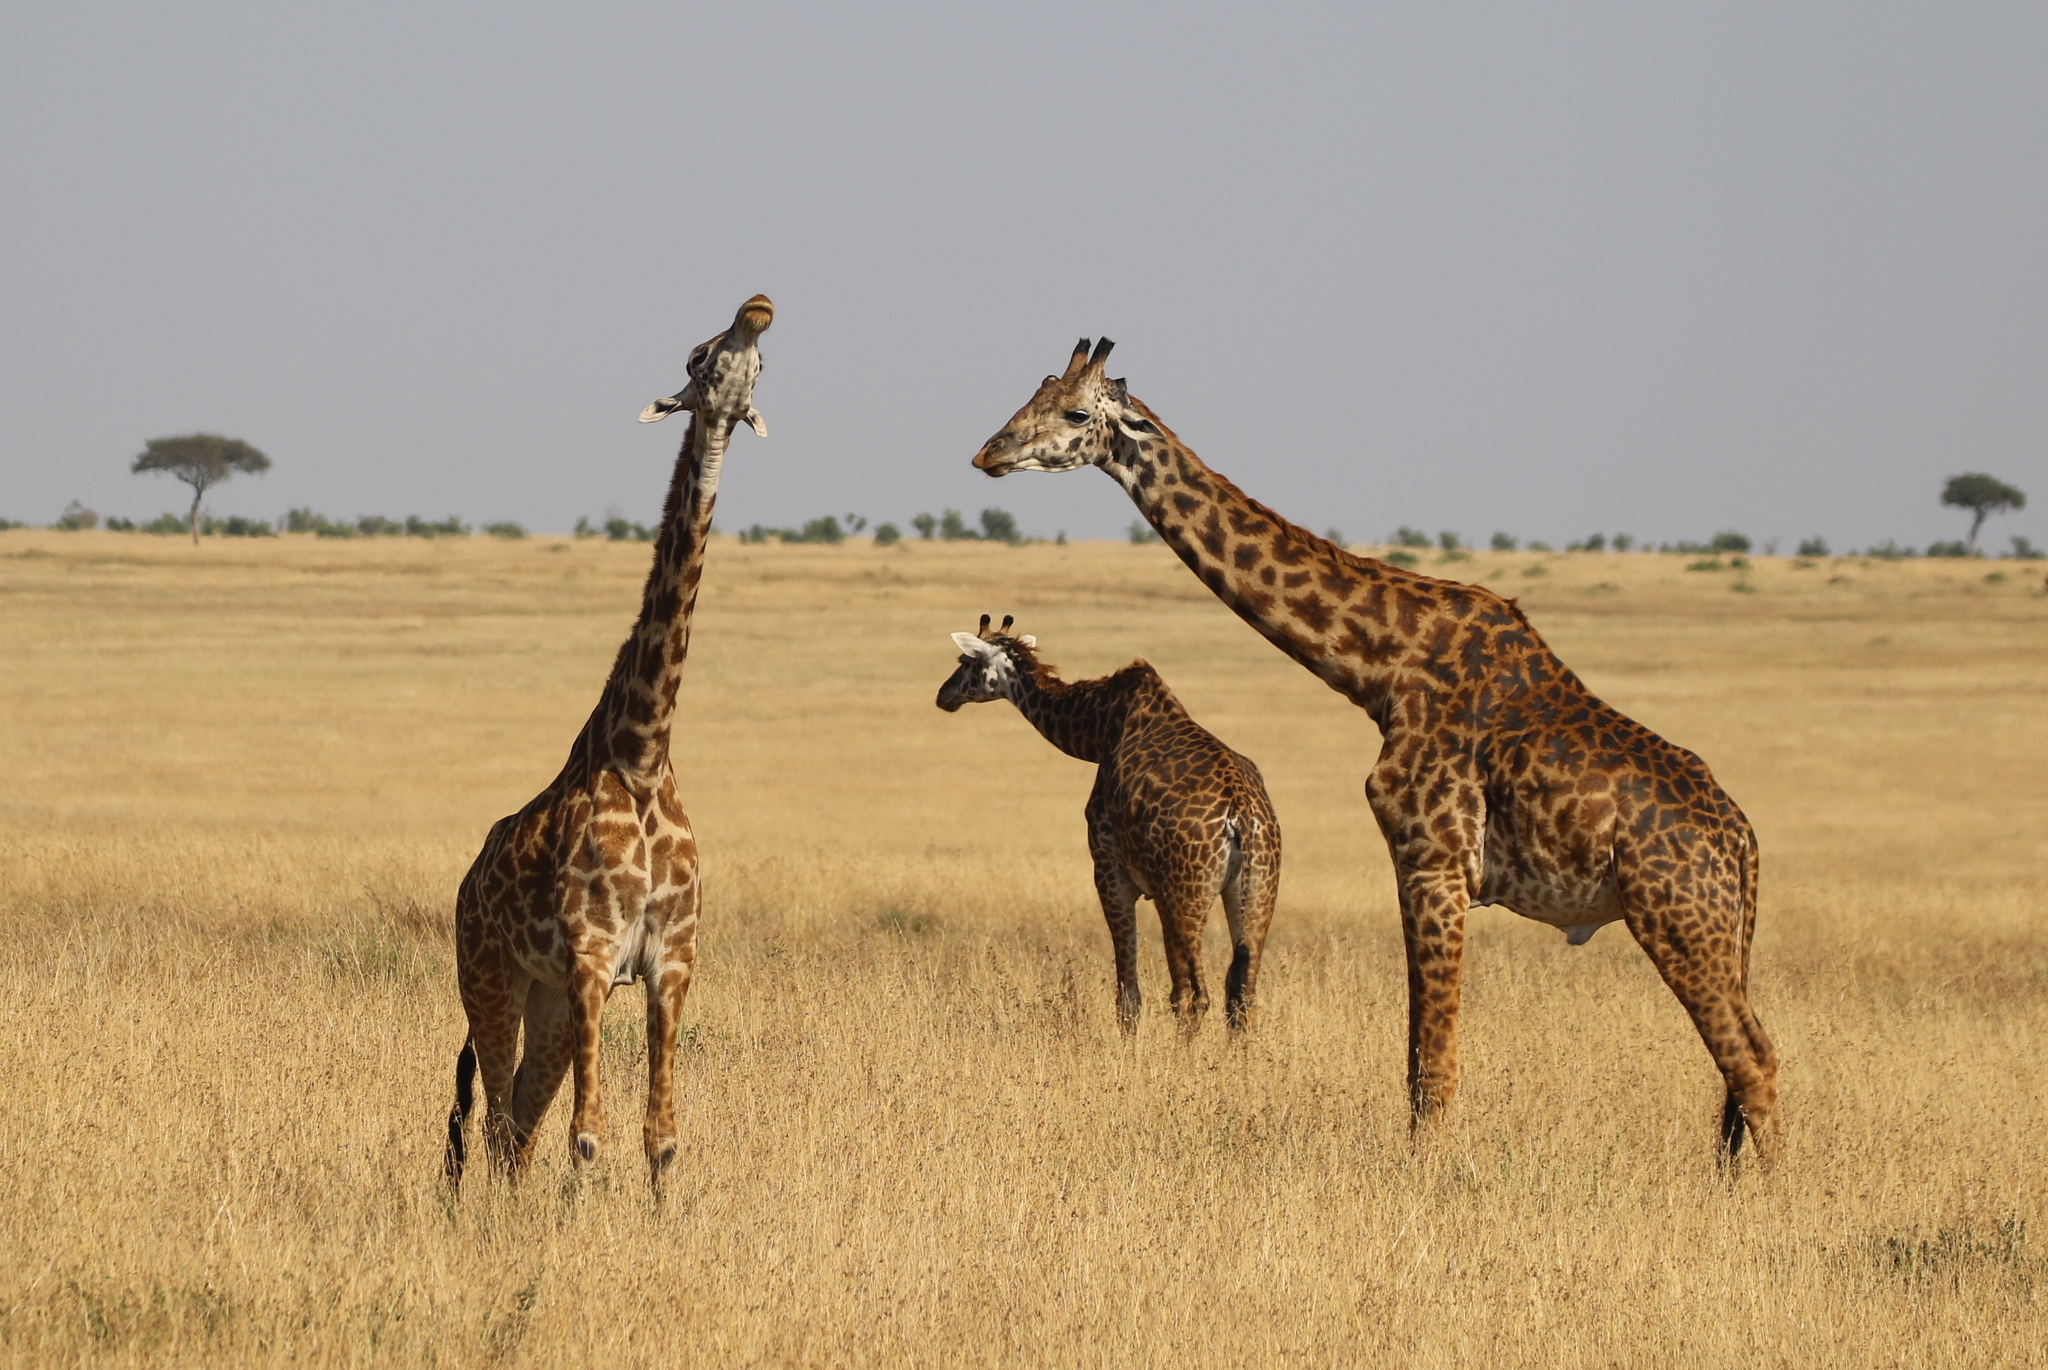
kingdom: Animalia
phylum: Chordata
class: Mammalia
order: Artiodactyla
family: Giraffidae
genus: Giraffa
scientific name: Giraffa tippelskirchi
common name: Masai giraffe
